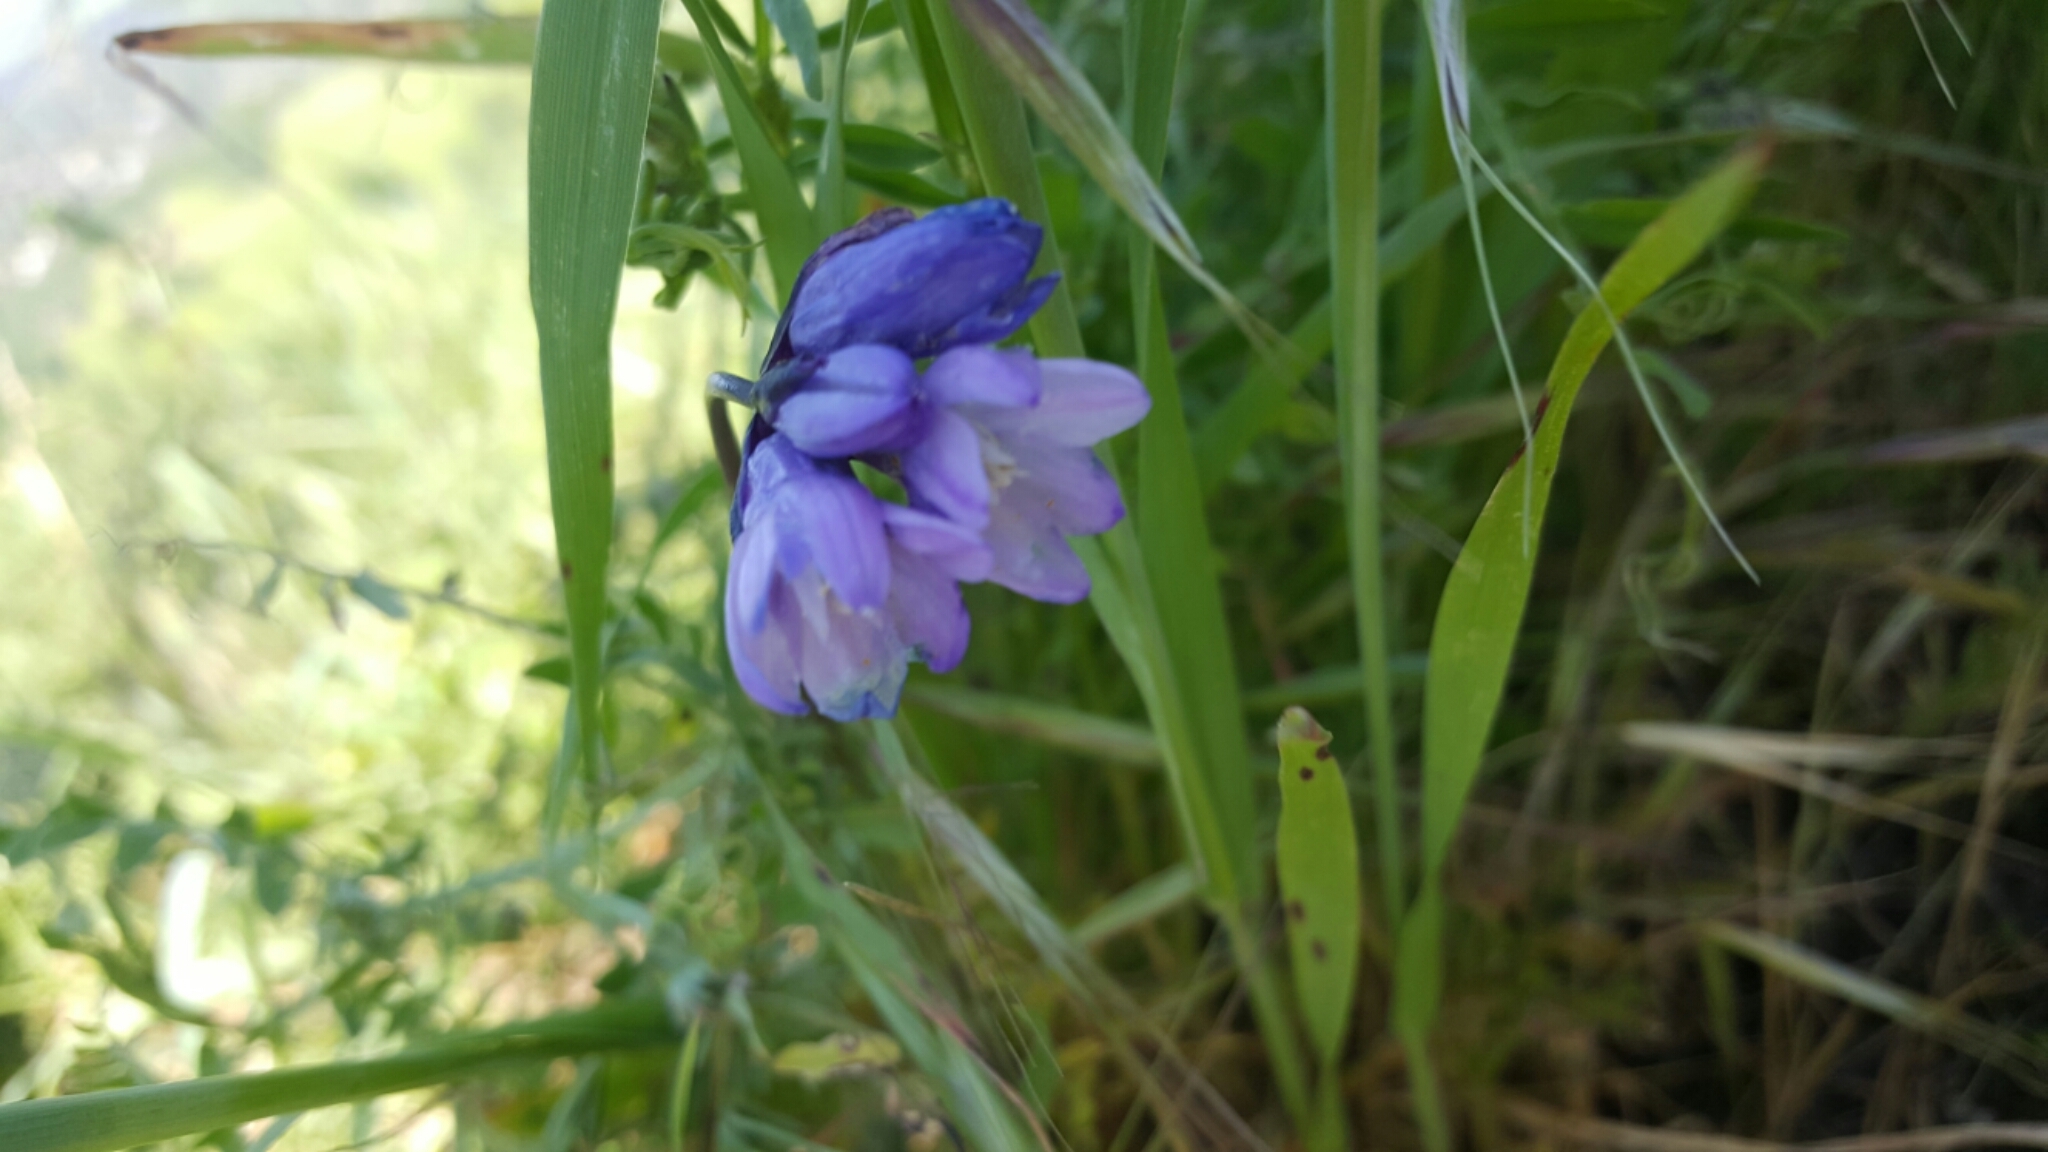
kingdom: Plantae
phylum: Tracheophyta
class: Liliopsida
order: Asparagales
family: Asparagaceae
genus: Dipterostemon
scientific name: Dipterostemon capitatus
